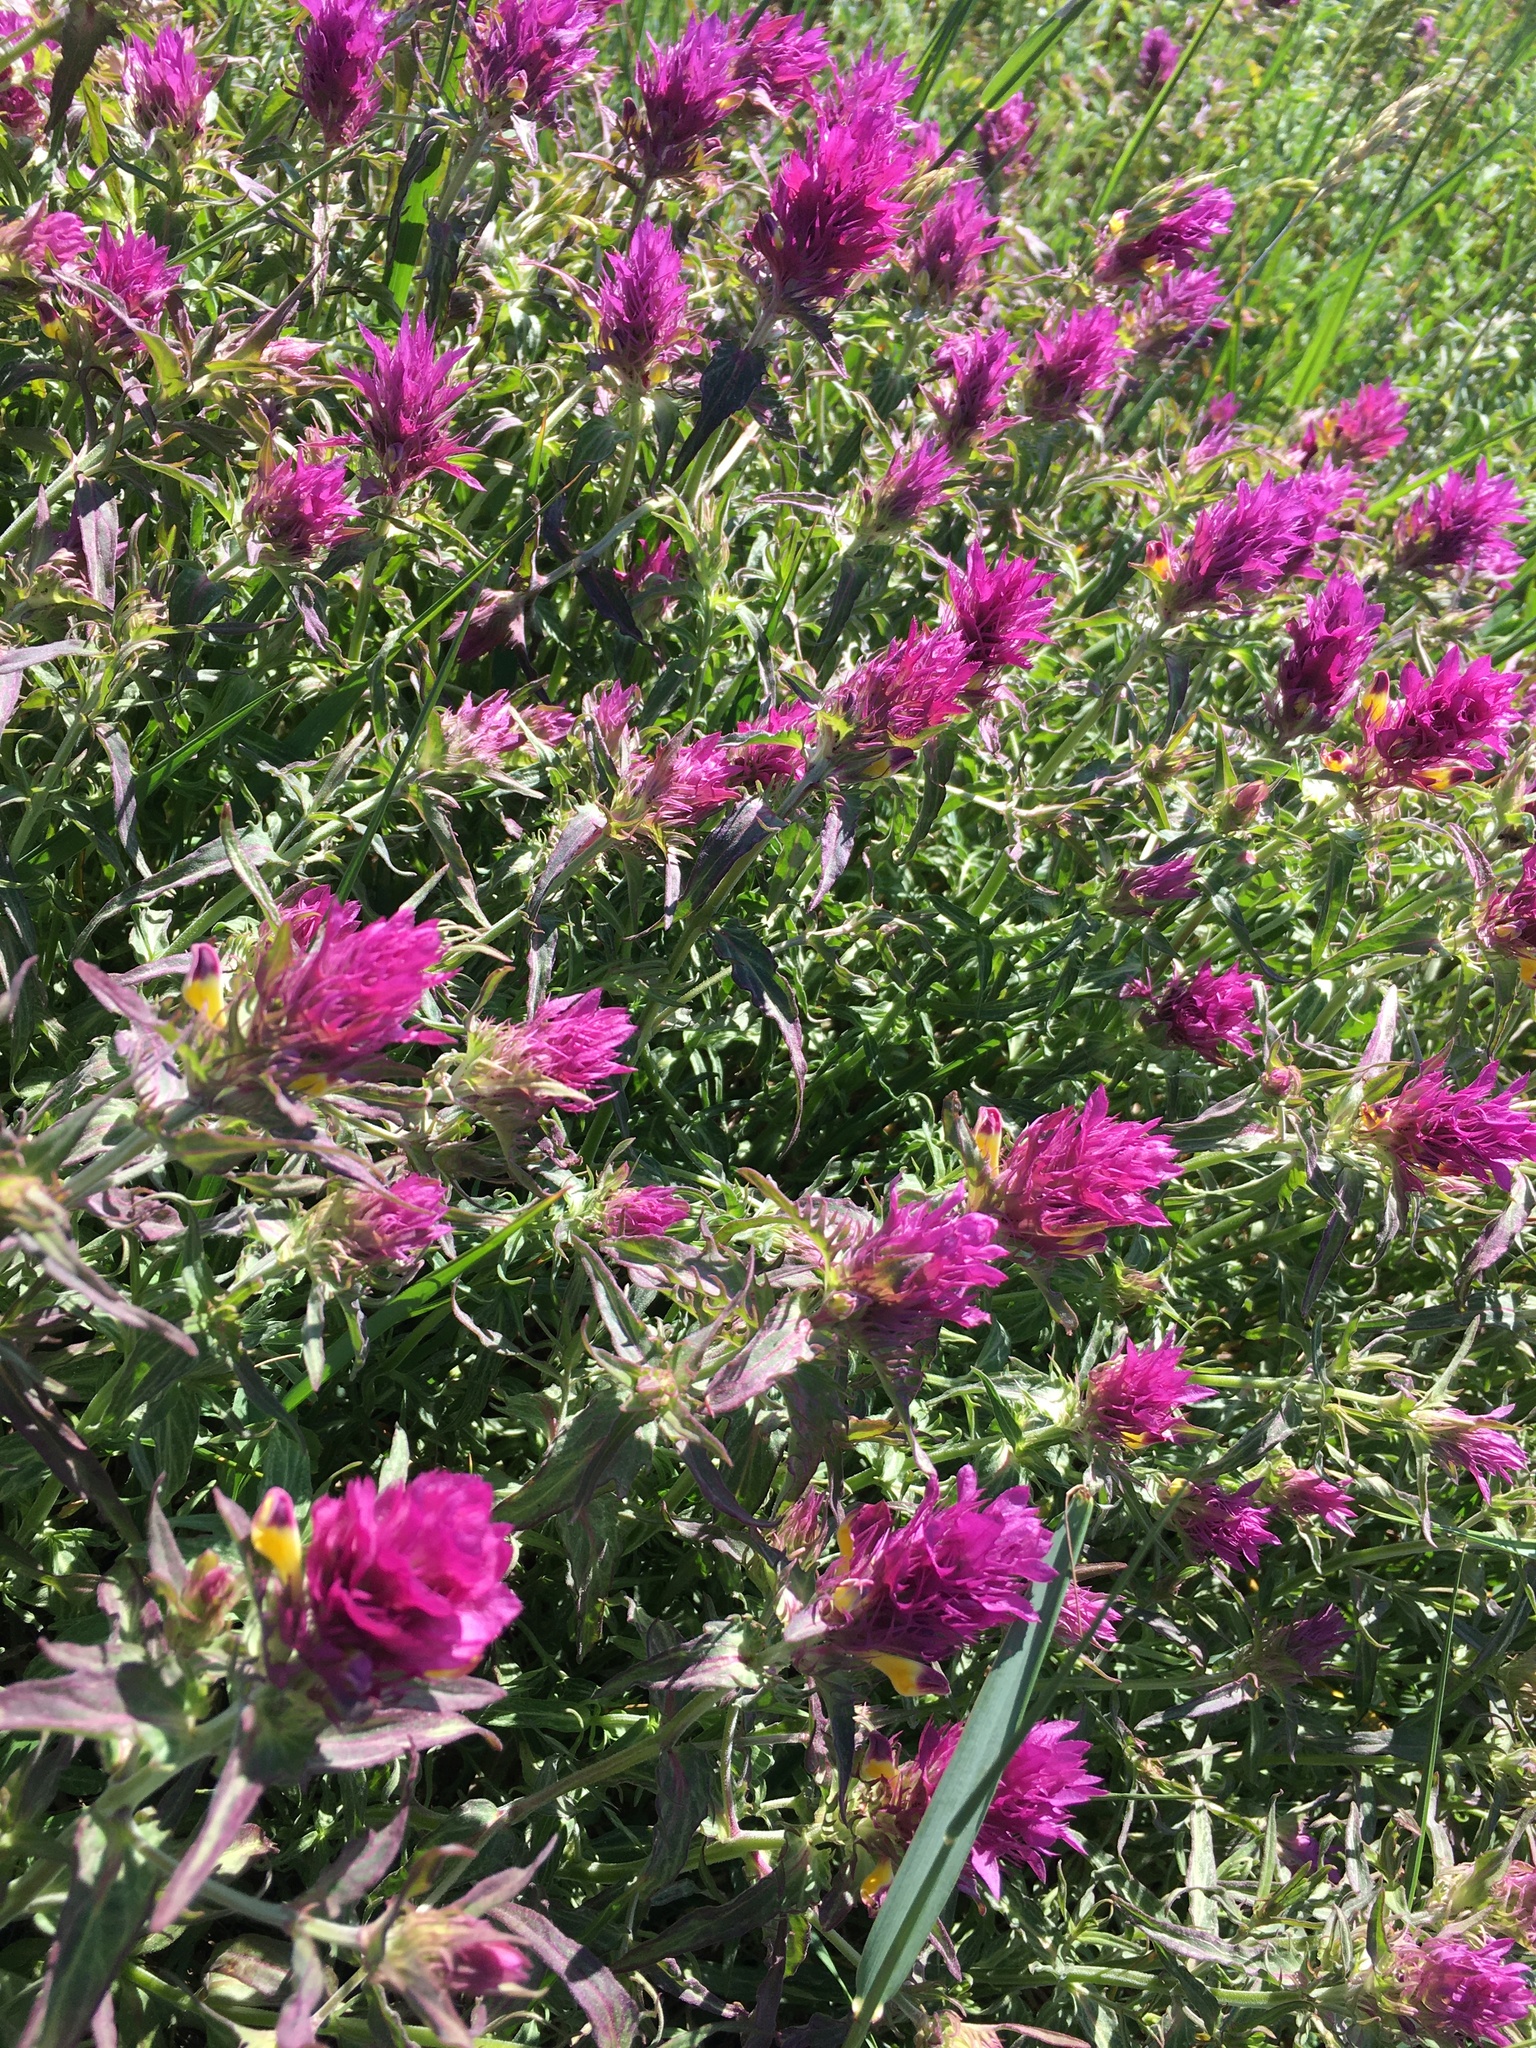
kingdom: Plantae
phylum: Tracheophyta
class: Magnoliopsida
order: Lamiales
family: Orobanchaceae
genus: Melampyrum
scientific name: Melampyrum arvense
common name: Field cow-wheat
